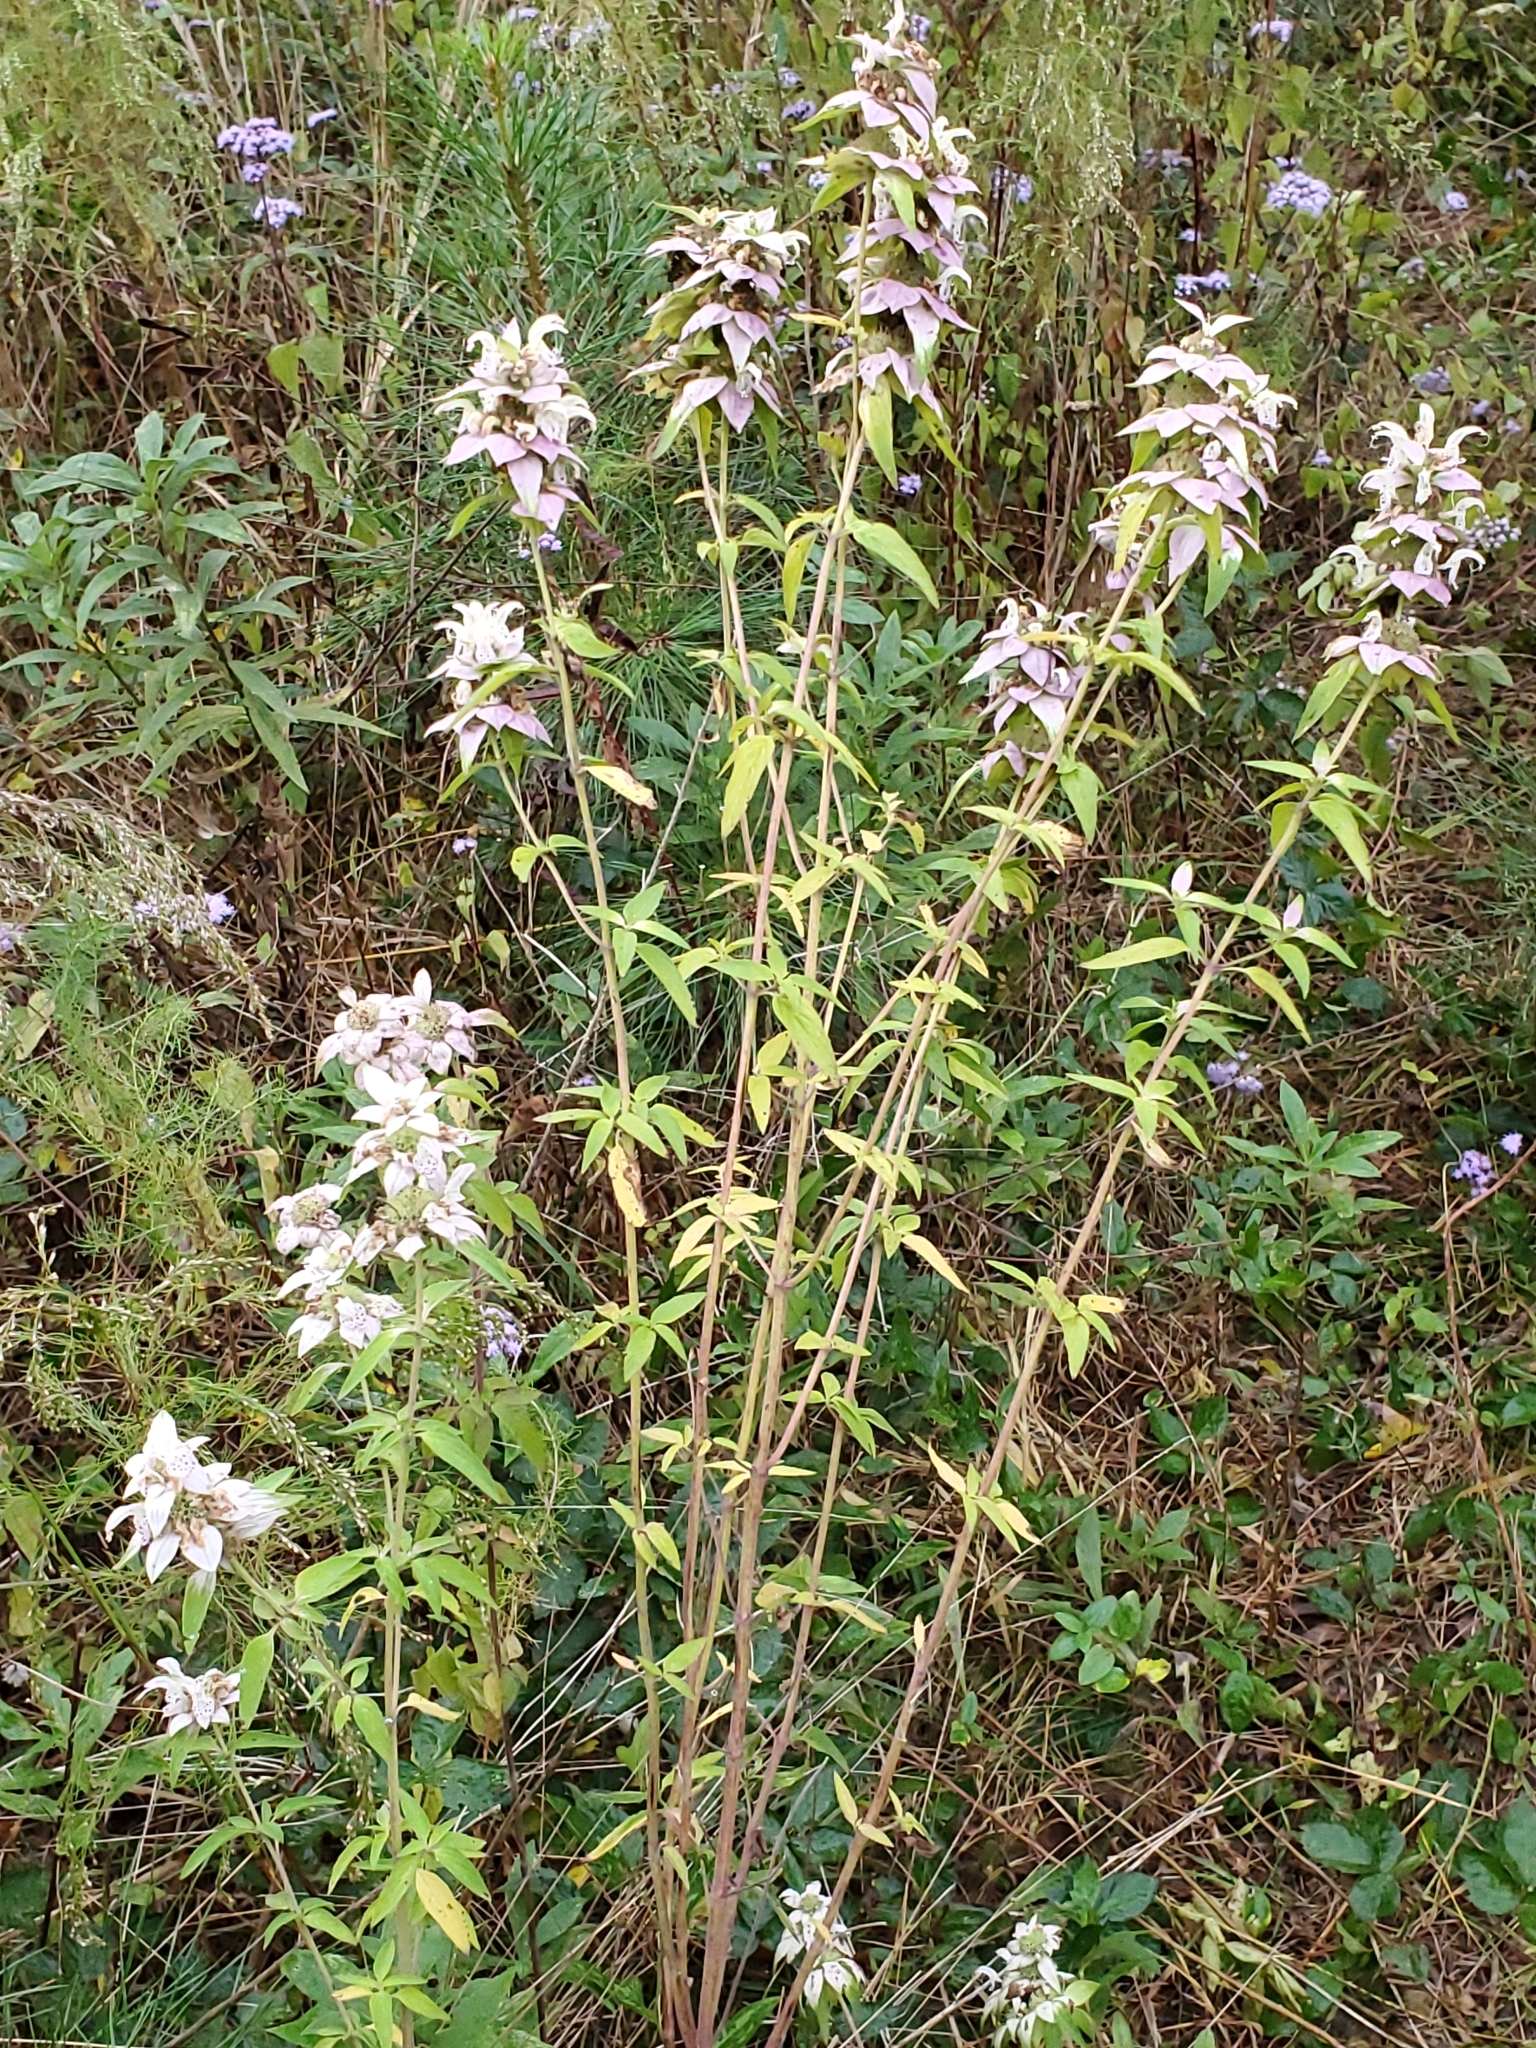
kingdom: Plantae
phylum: Tracheophyta
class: Magnoliopsida
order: Lamiales
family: Lamiaceae
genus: Monarda
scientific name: Monarda punctata
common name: Dotted monarda
